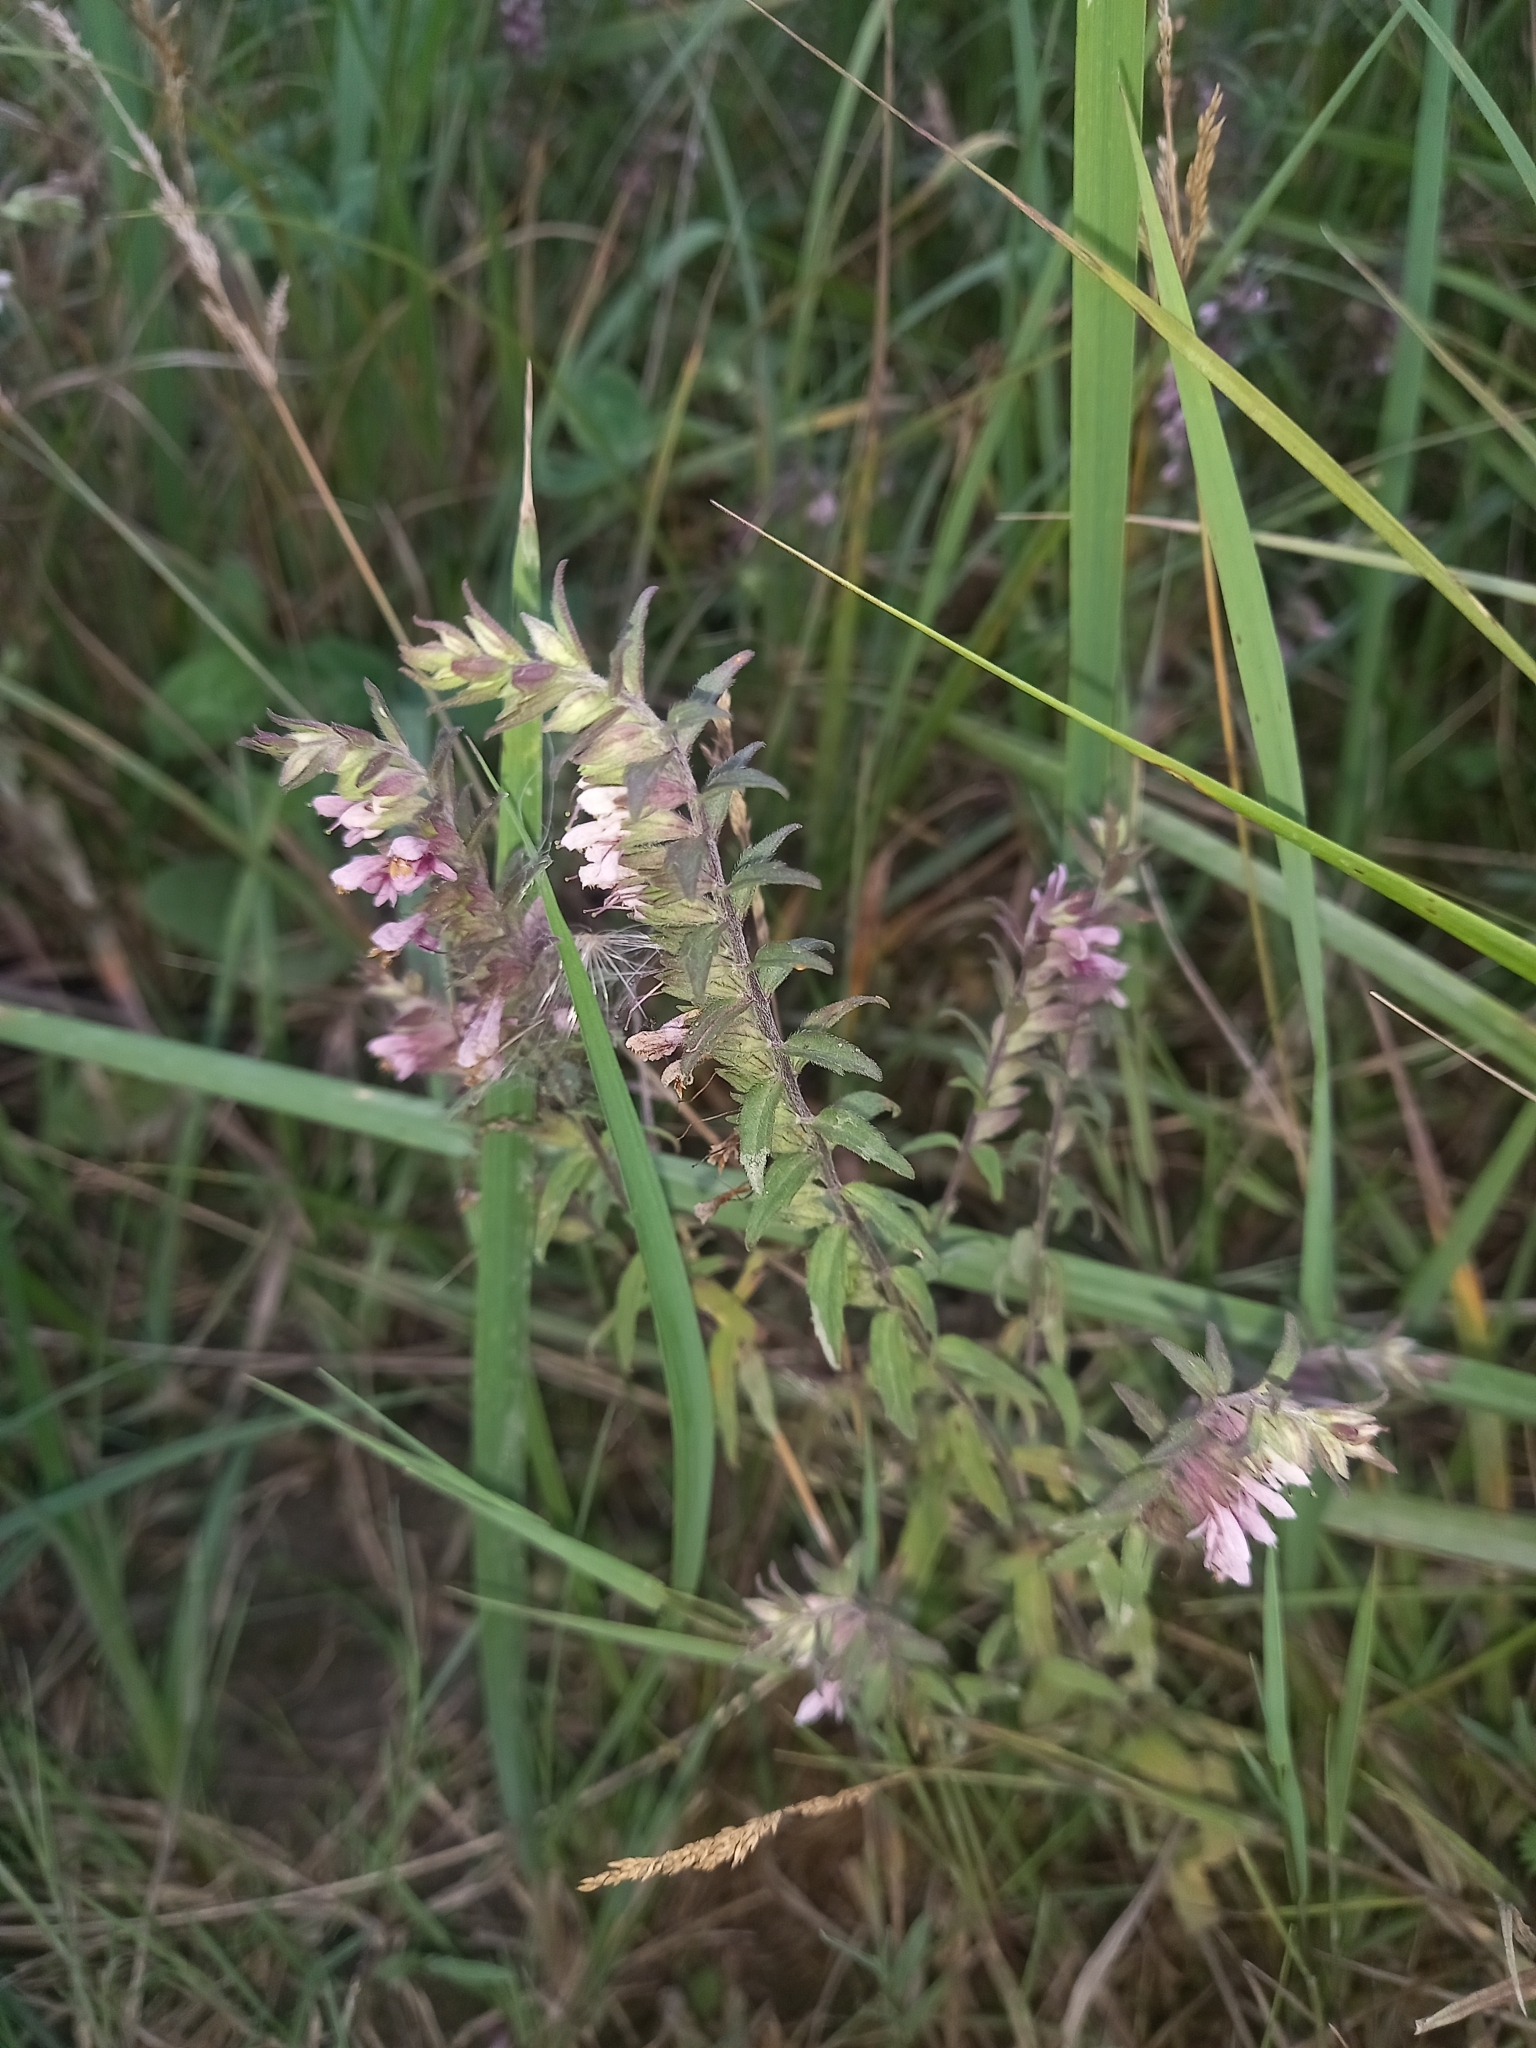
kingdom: Plantae
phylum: Tracheophyta
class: Magnoliopsida
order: Lamiales
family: Orobanchaceae
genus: Odontites
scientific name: Odontites vulgaris
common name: Broomrape
